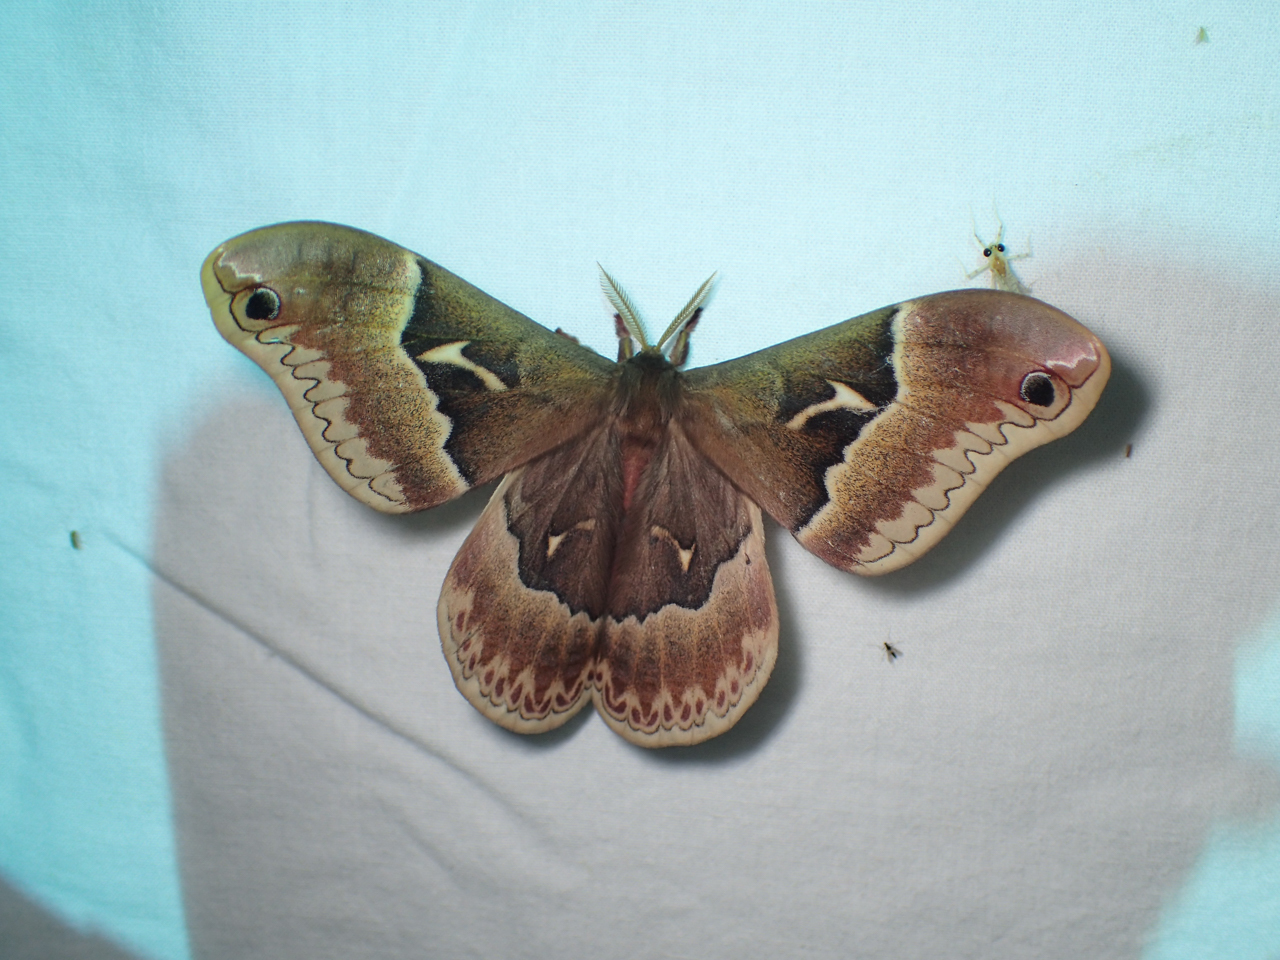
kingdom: Animalia
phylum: Arthropoda
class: Insecta
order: Lepidoptera
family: Saturniidae
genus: Callosamia
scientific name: Callosamia angulifera
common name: Tulip tree silkmoth
